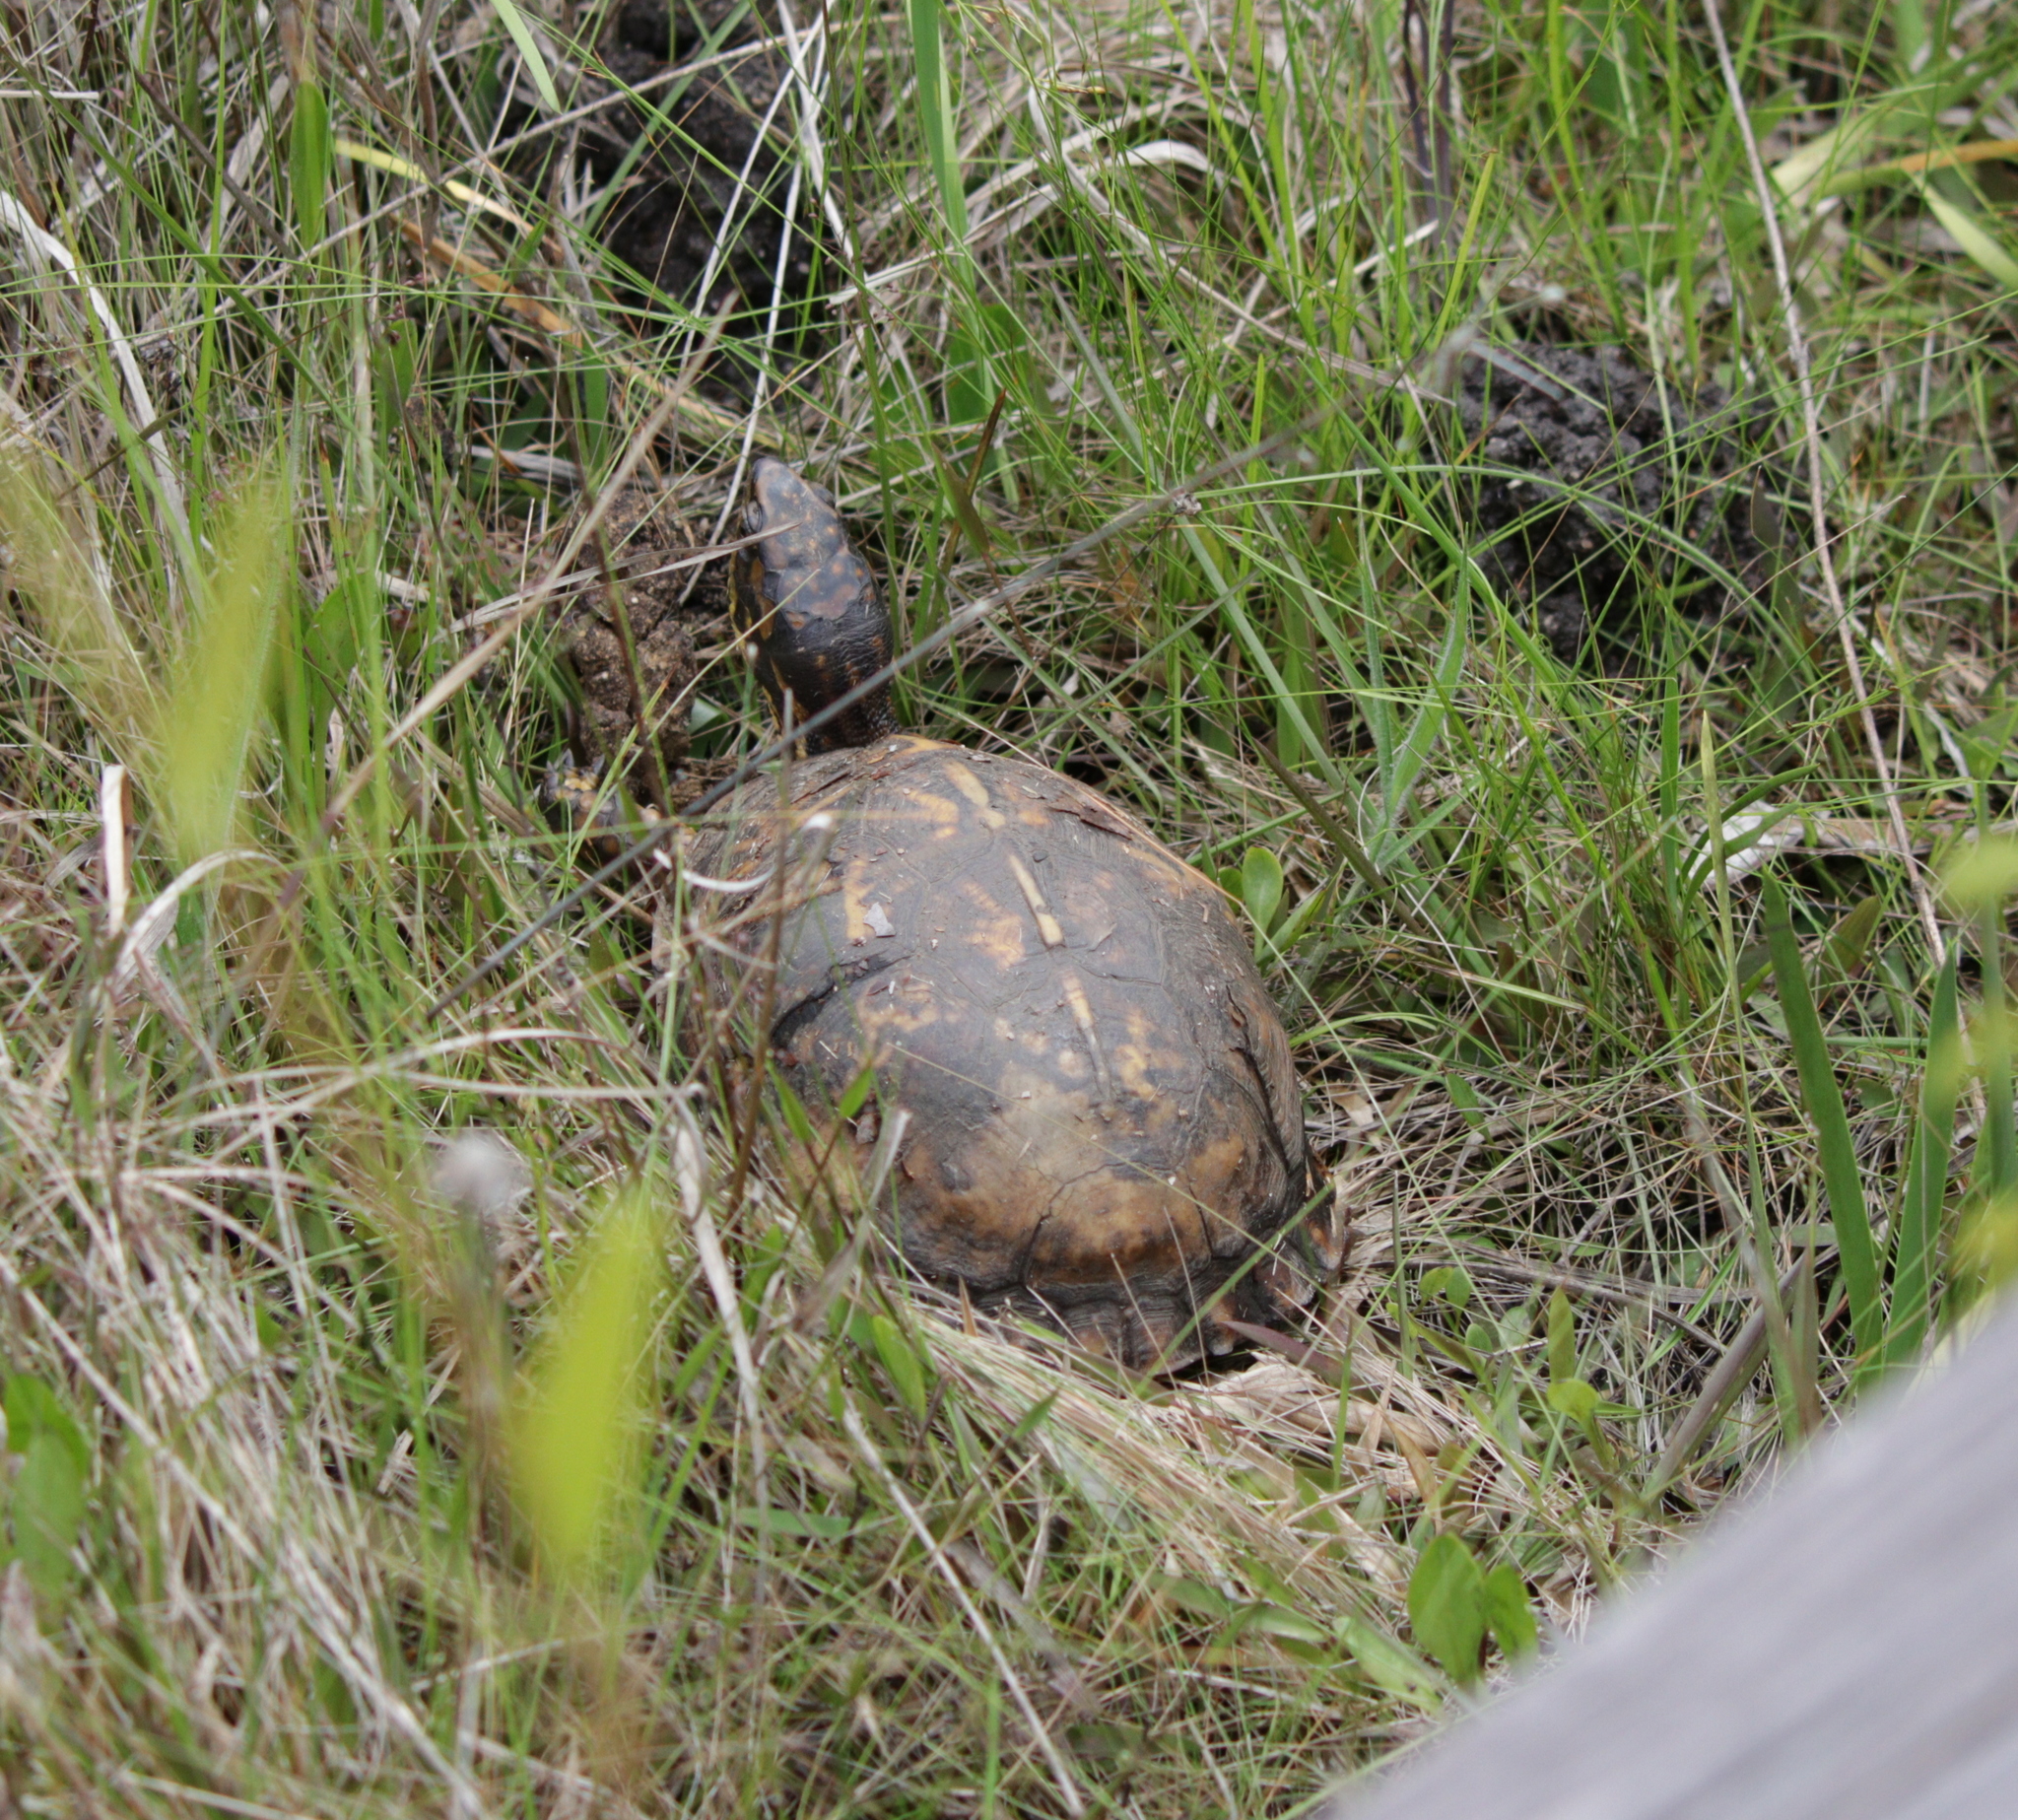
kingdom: Animalia
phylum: Chordata
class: Testudines
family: Emydidae
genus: Terrapene
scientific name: Terrapene carolina
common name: Common box turtle
